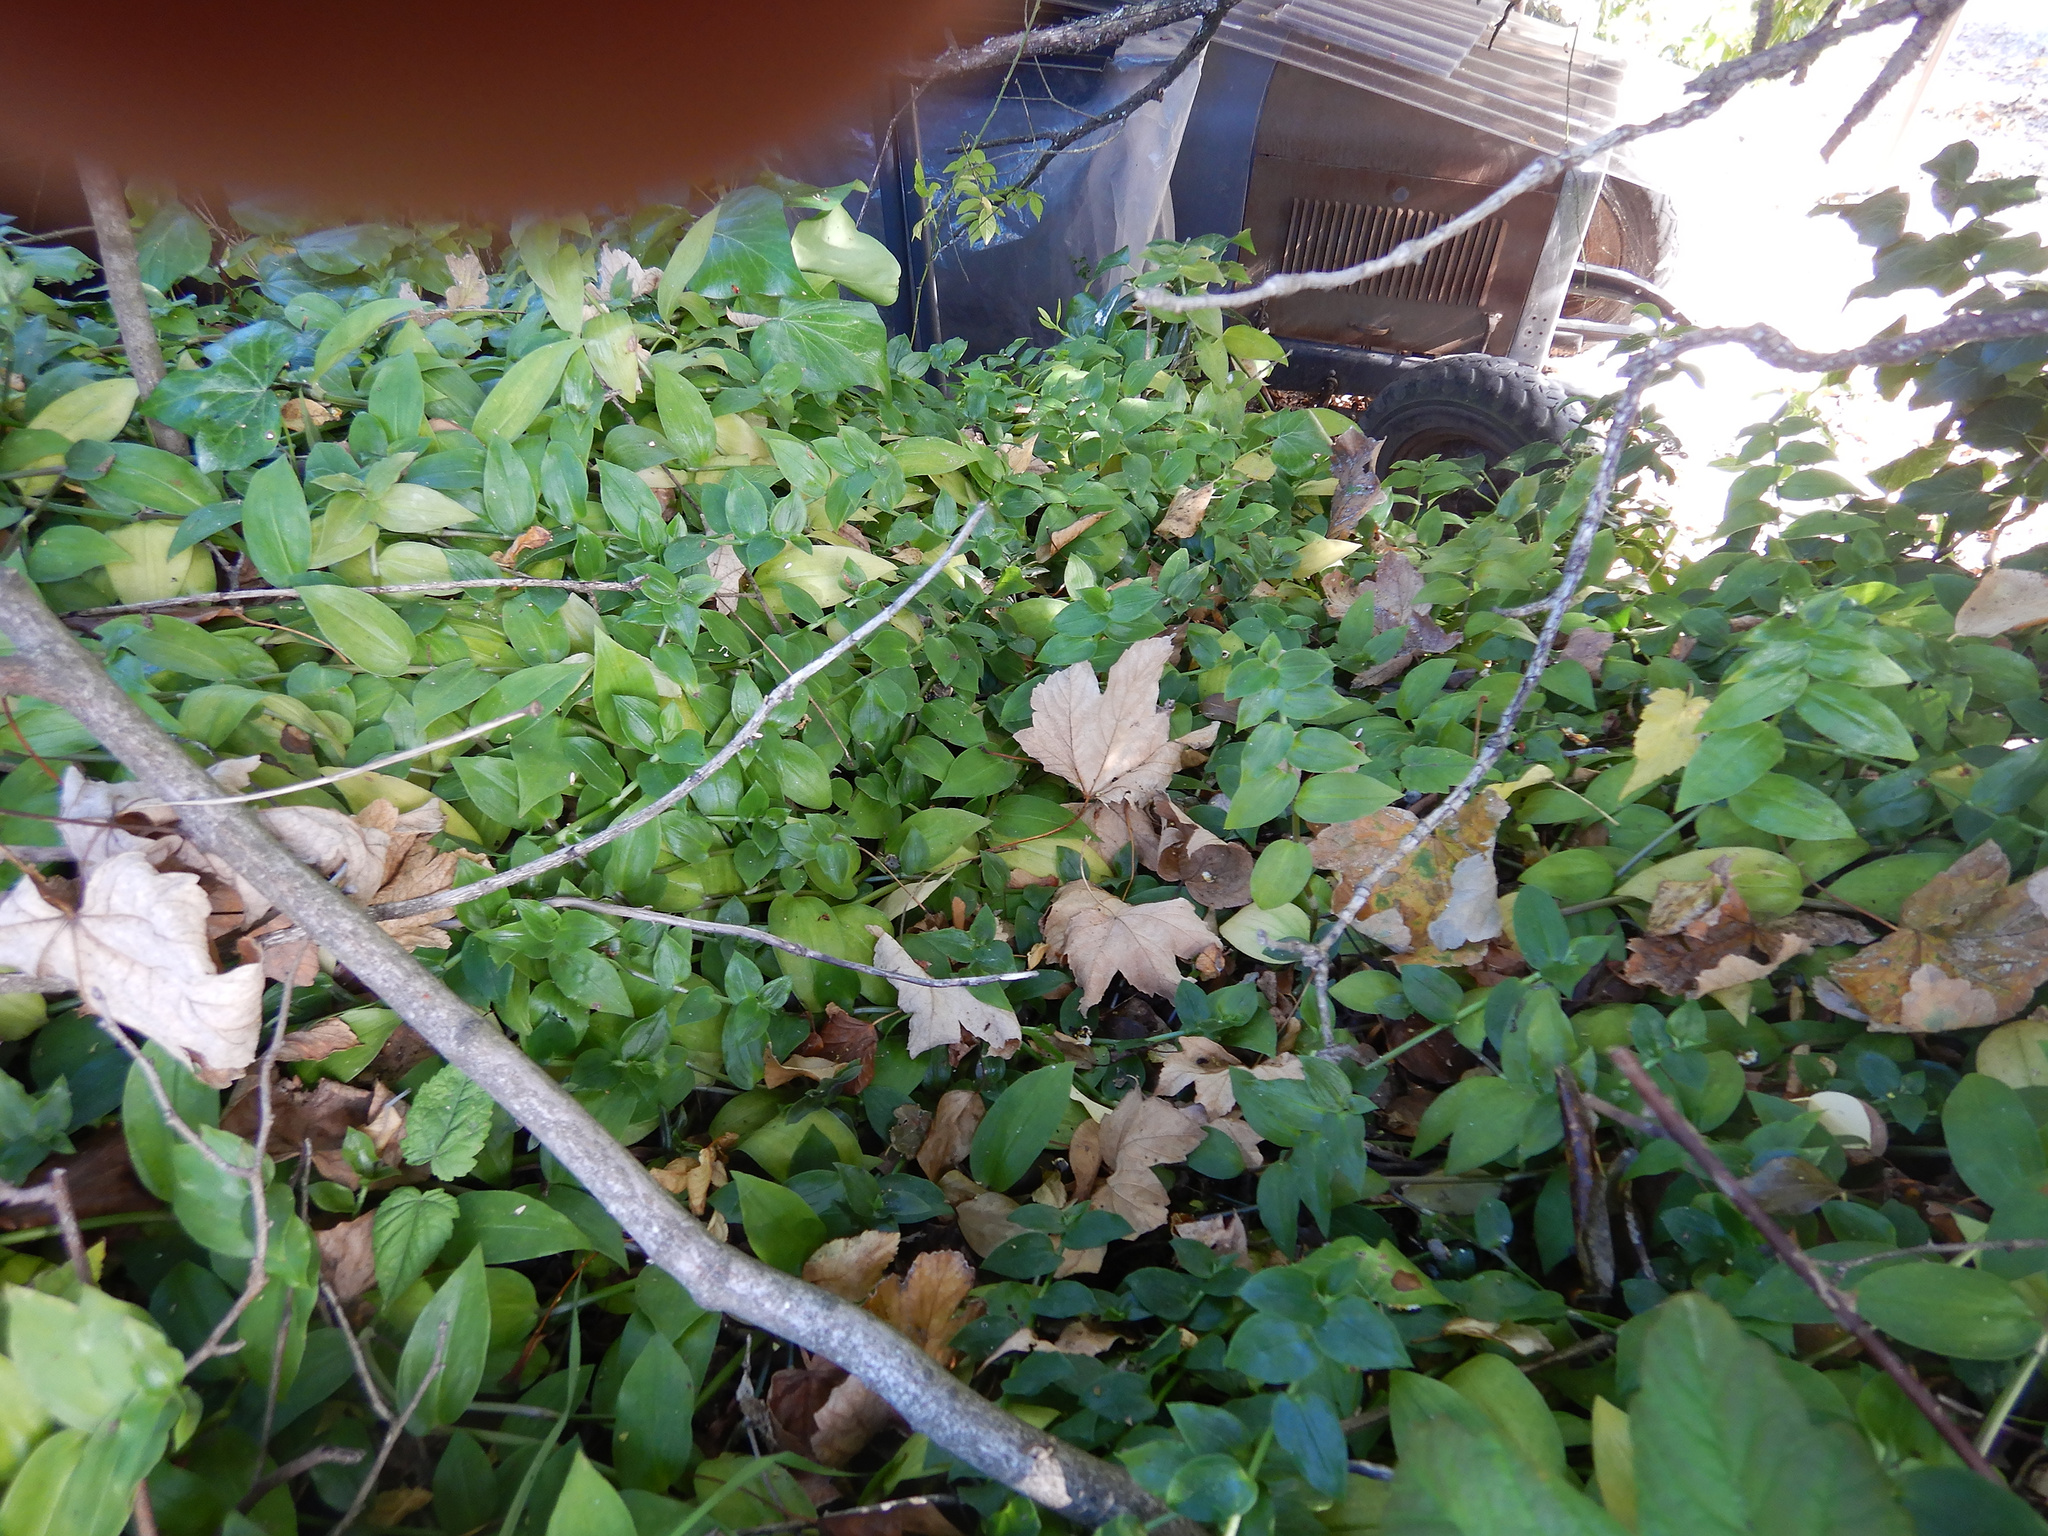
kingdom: Plantae
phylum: Tracheophyta
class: Liliopsida
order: Commelinales
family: Commelinaceae
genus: Tradescantia
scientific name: Tradescantia fluminensis
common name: Wandering-jew
